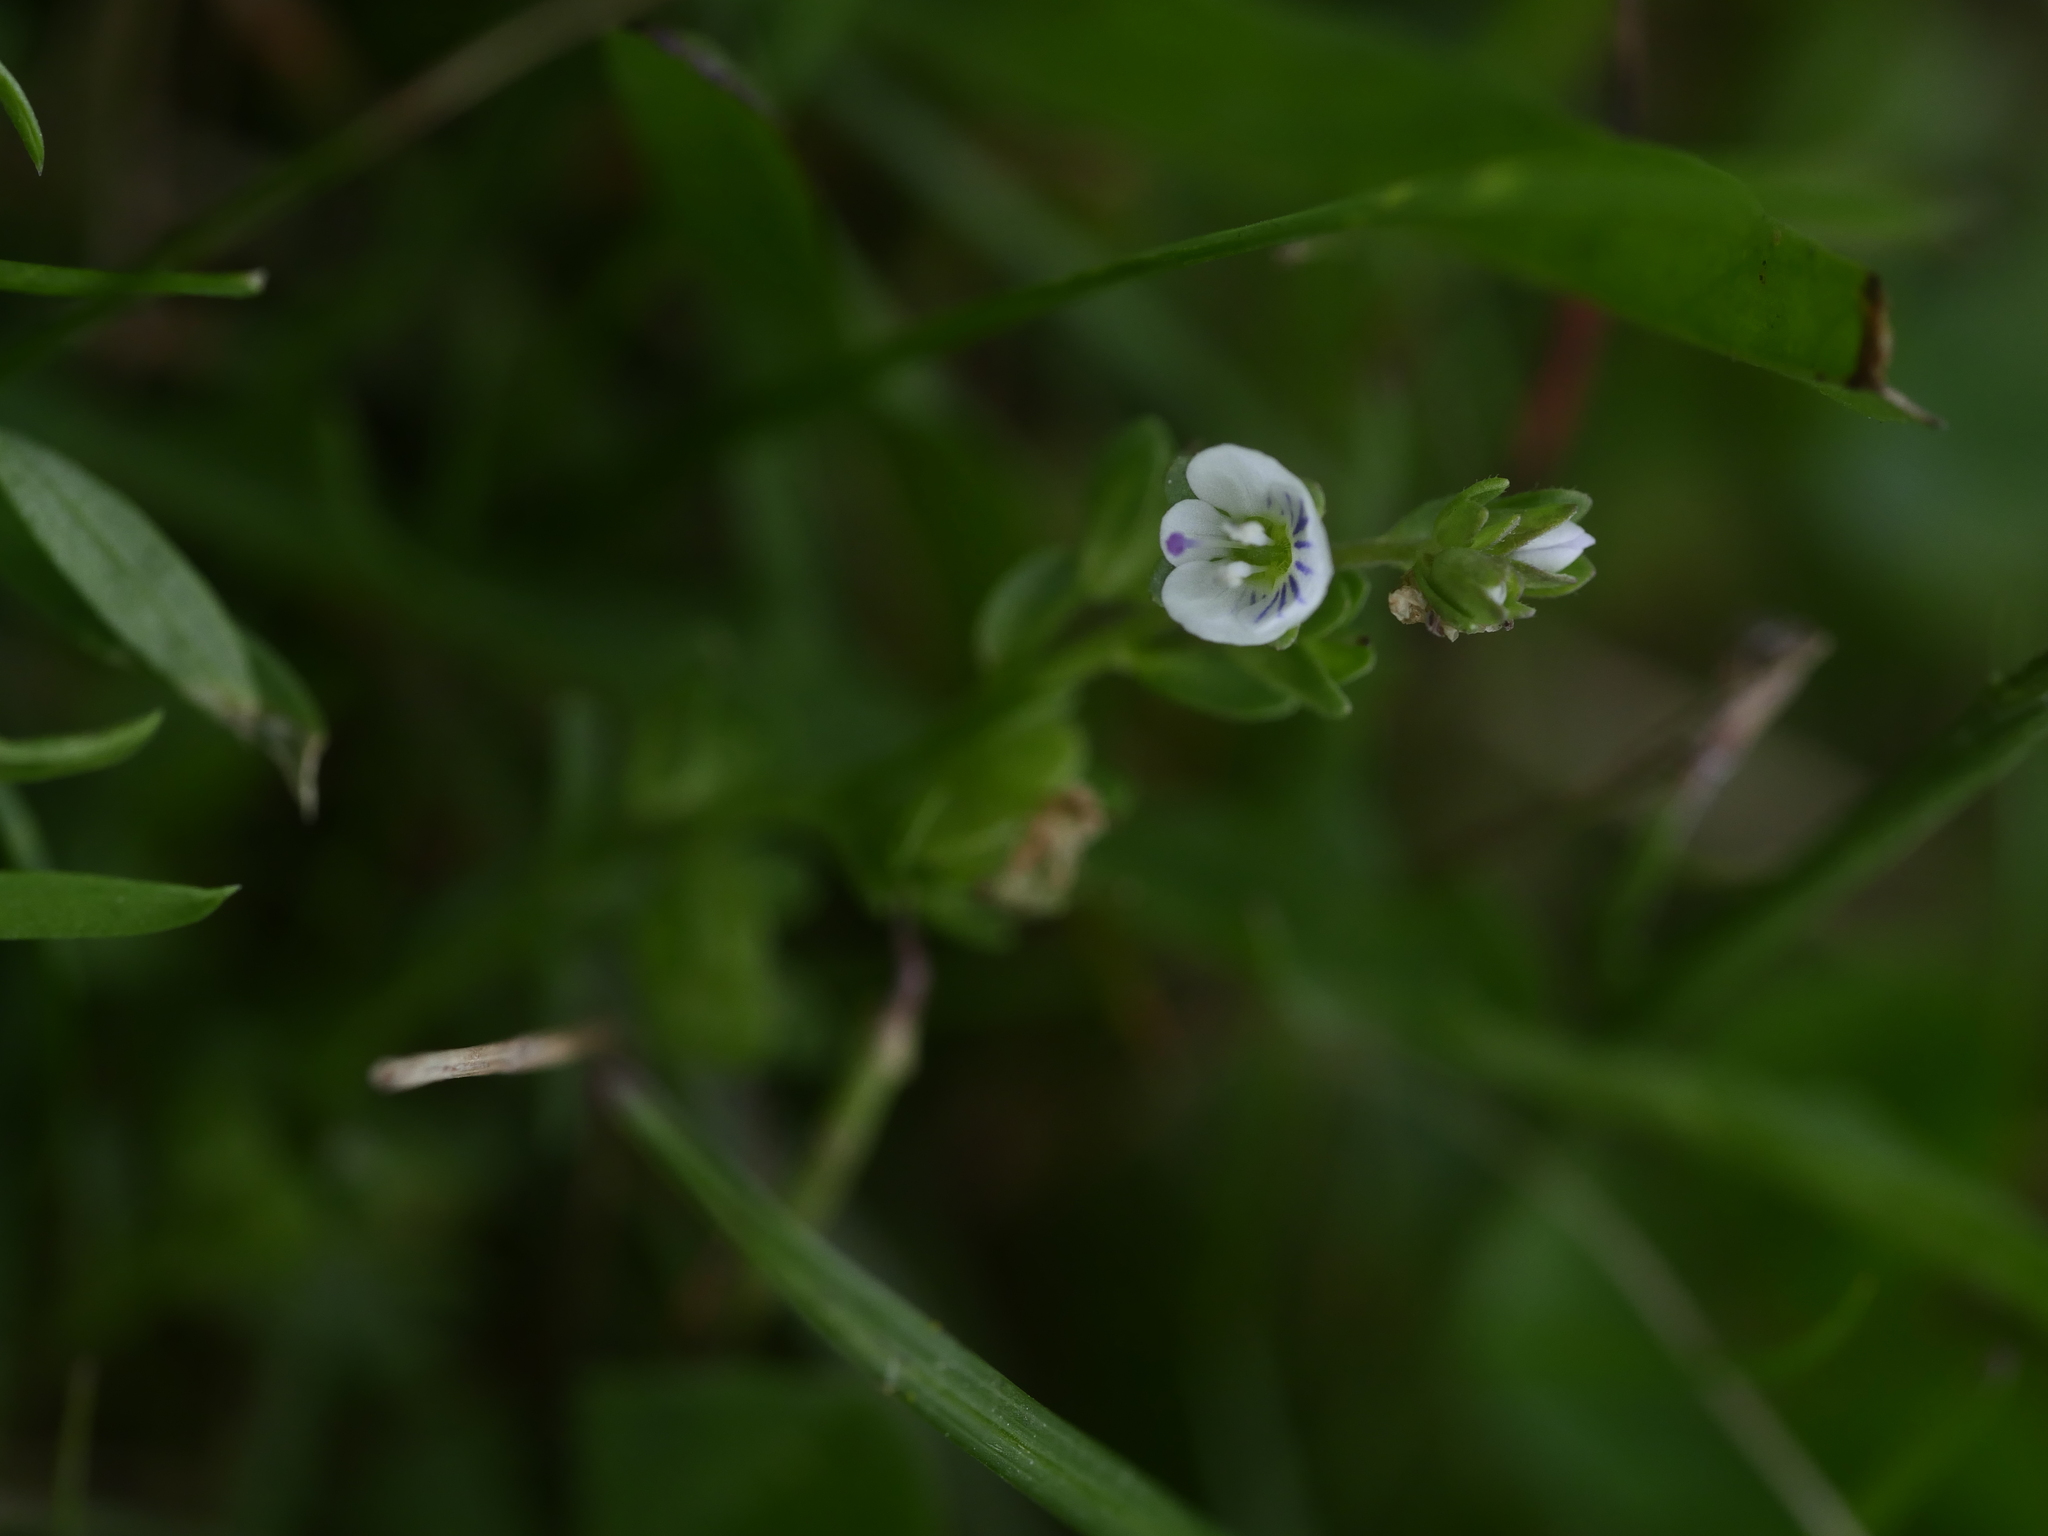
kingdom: Plantae
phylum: Tracheophyta
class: Magnoliopsida
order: Lamiales
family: Plantaginaceae
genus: Veronica
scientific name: Veronica serpyllifolia
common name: Thyme-leaved speedwell
